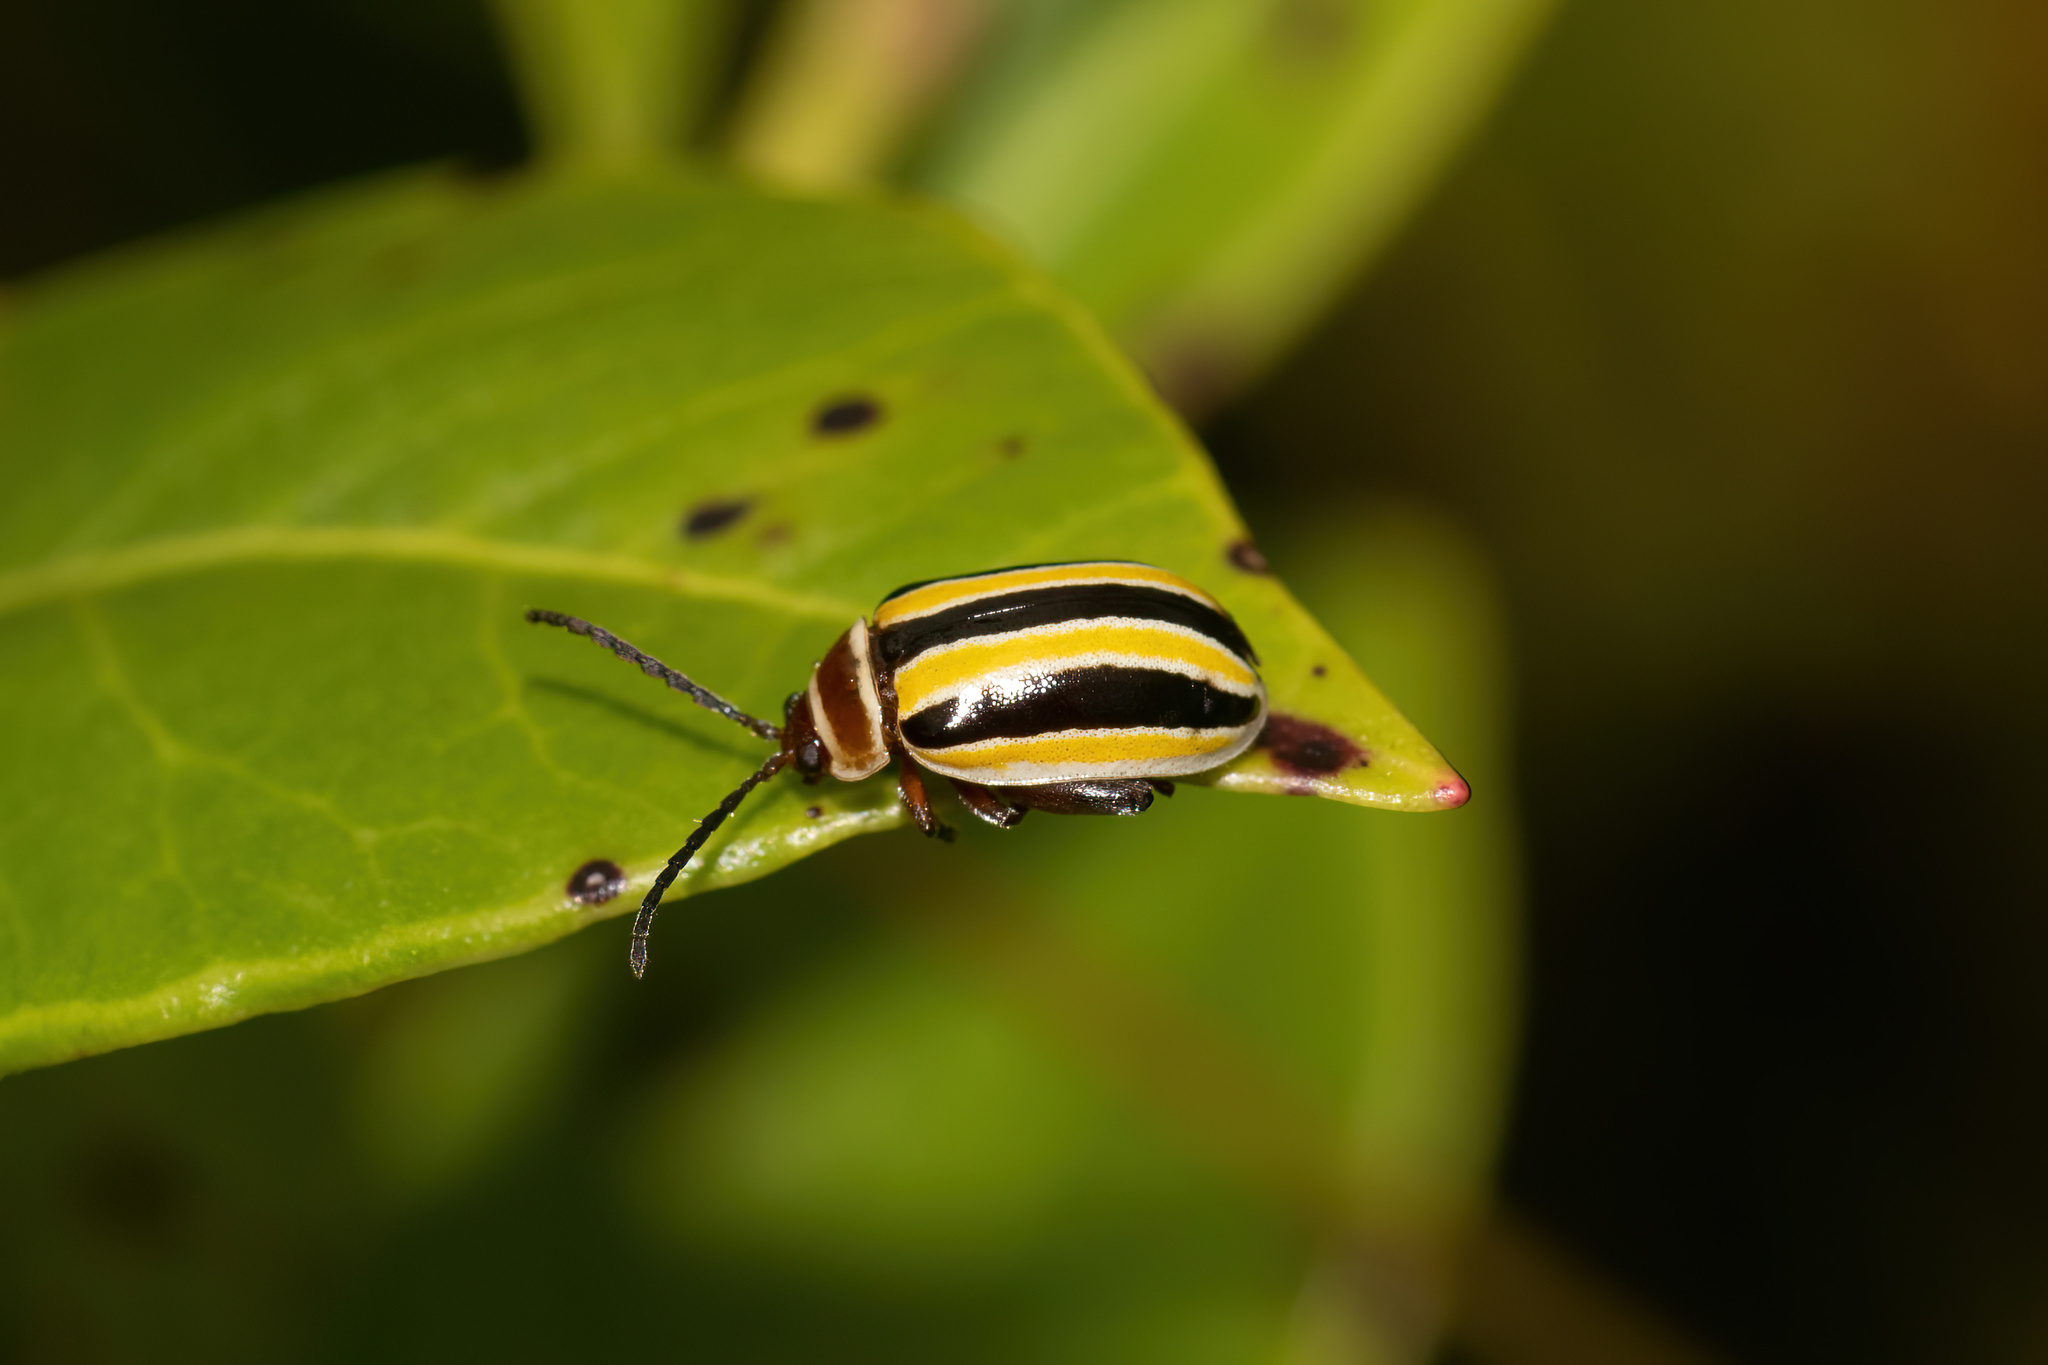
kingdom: Animalia
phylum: Arthropoda
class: Insecta
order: Coleoptera
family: Chrysomelidae
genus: Kuschelina
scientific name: Kuschelina floridana
